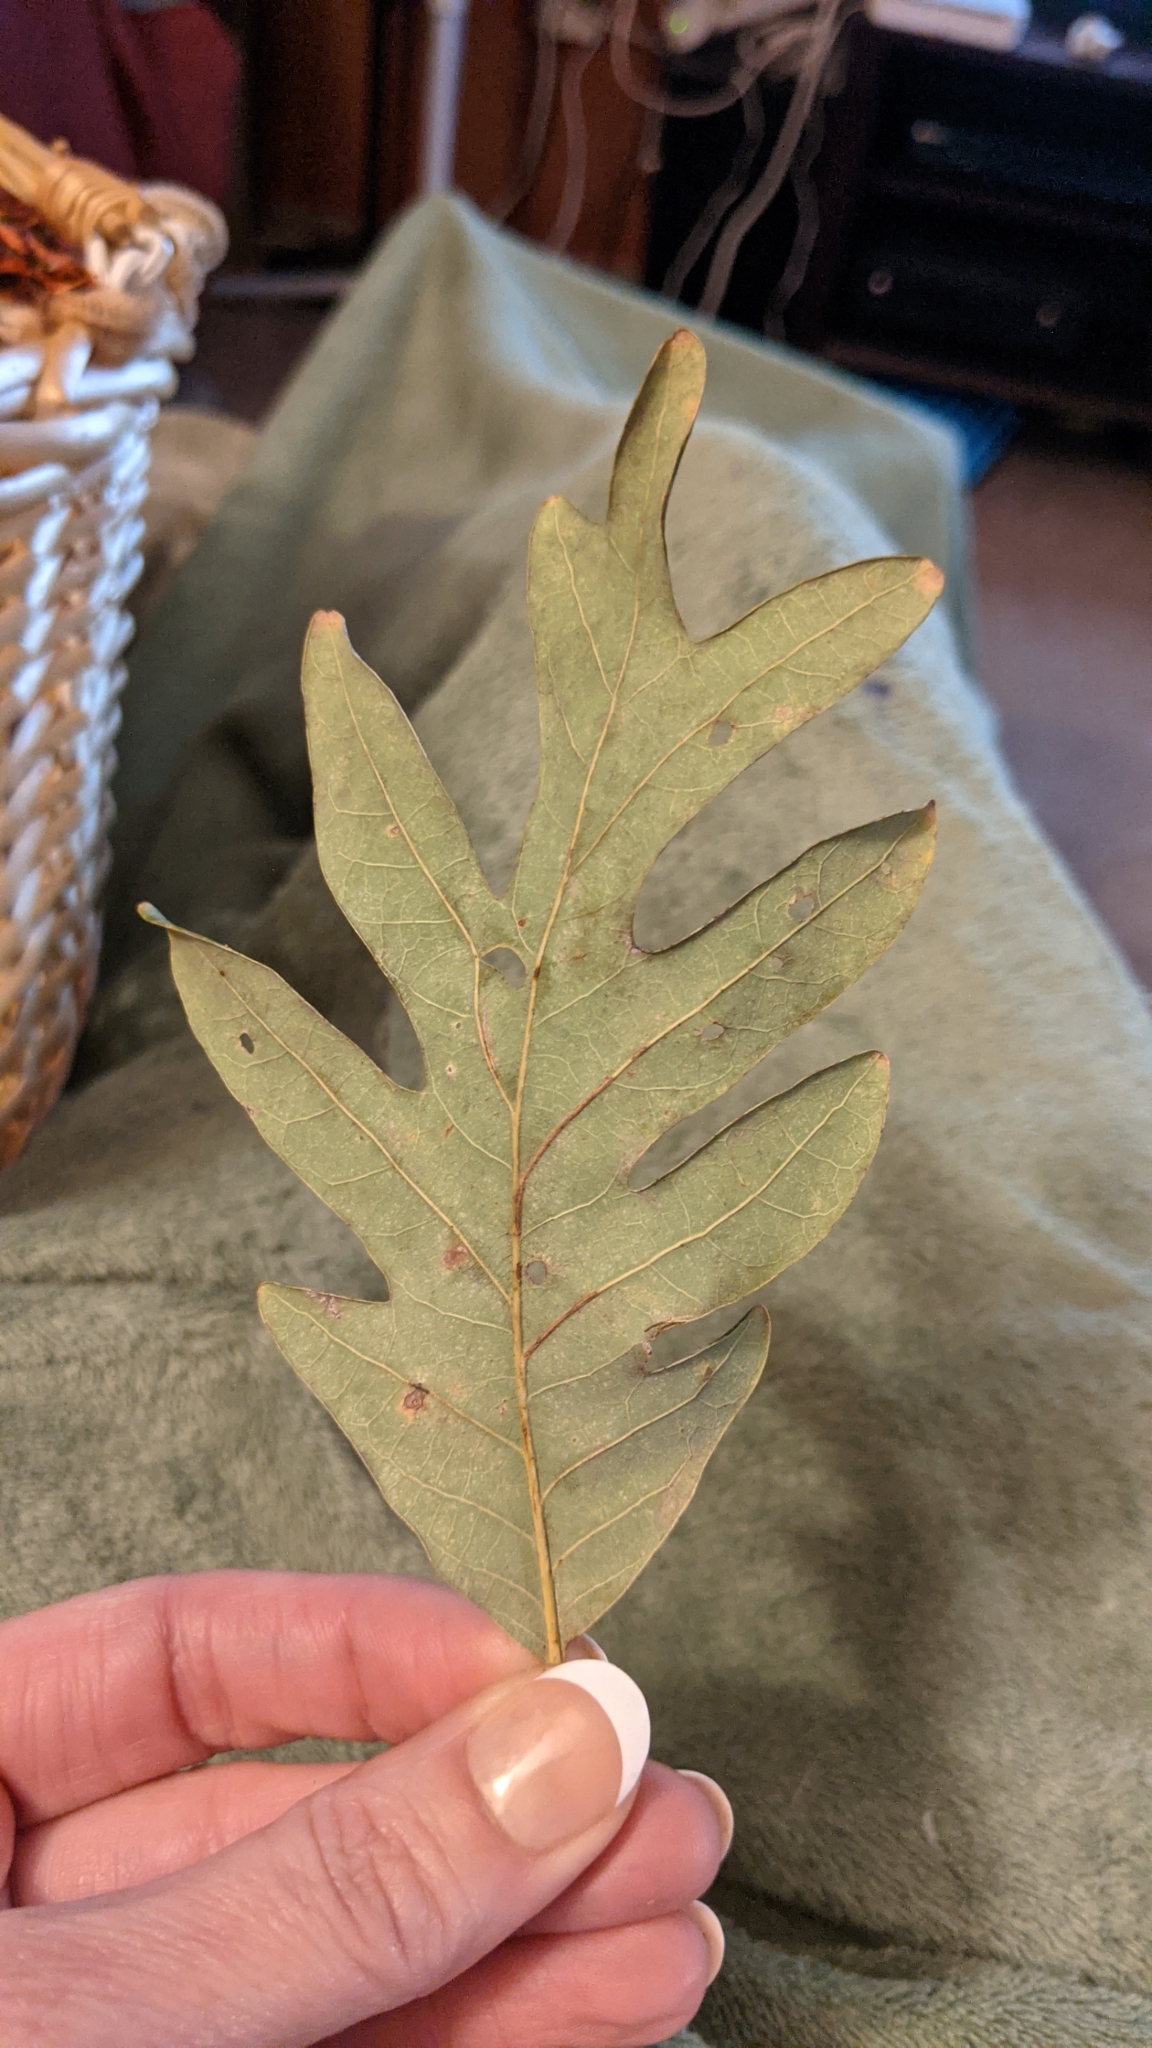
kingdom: Plantae
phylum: Tracheophyta
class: Magnoliopsida
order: Fagales
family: Fagaceae
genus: Quercus
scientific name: Quercus alba
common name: White oak
